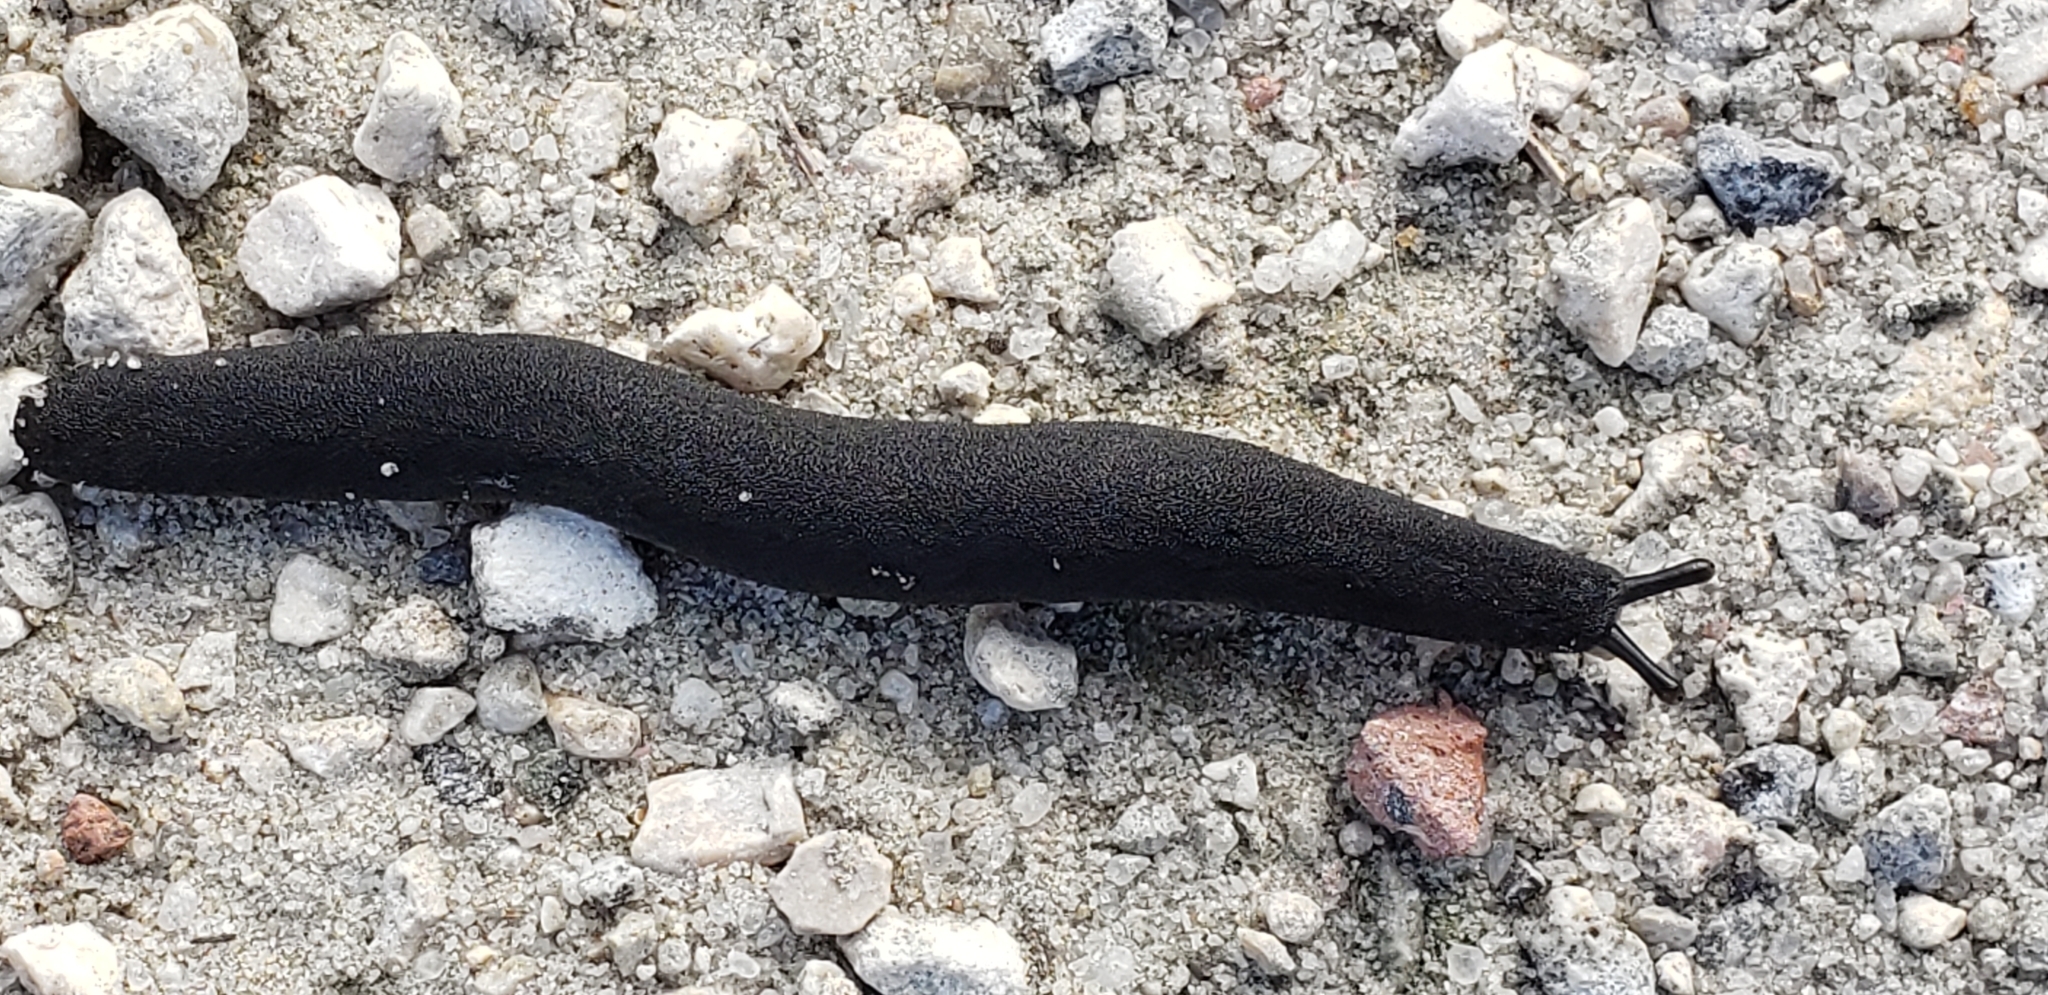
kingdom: Animalia
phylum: Mollusca
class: Gastropoda
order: Systellommatophora
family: Veronicellidae
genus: Belocaulus
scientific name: Belocaulus angustipes
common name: Black velvet leatherleaf slug
